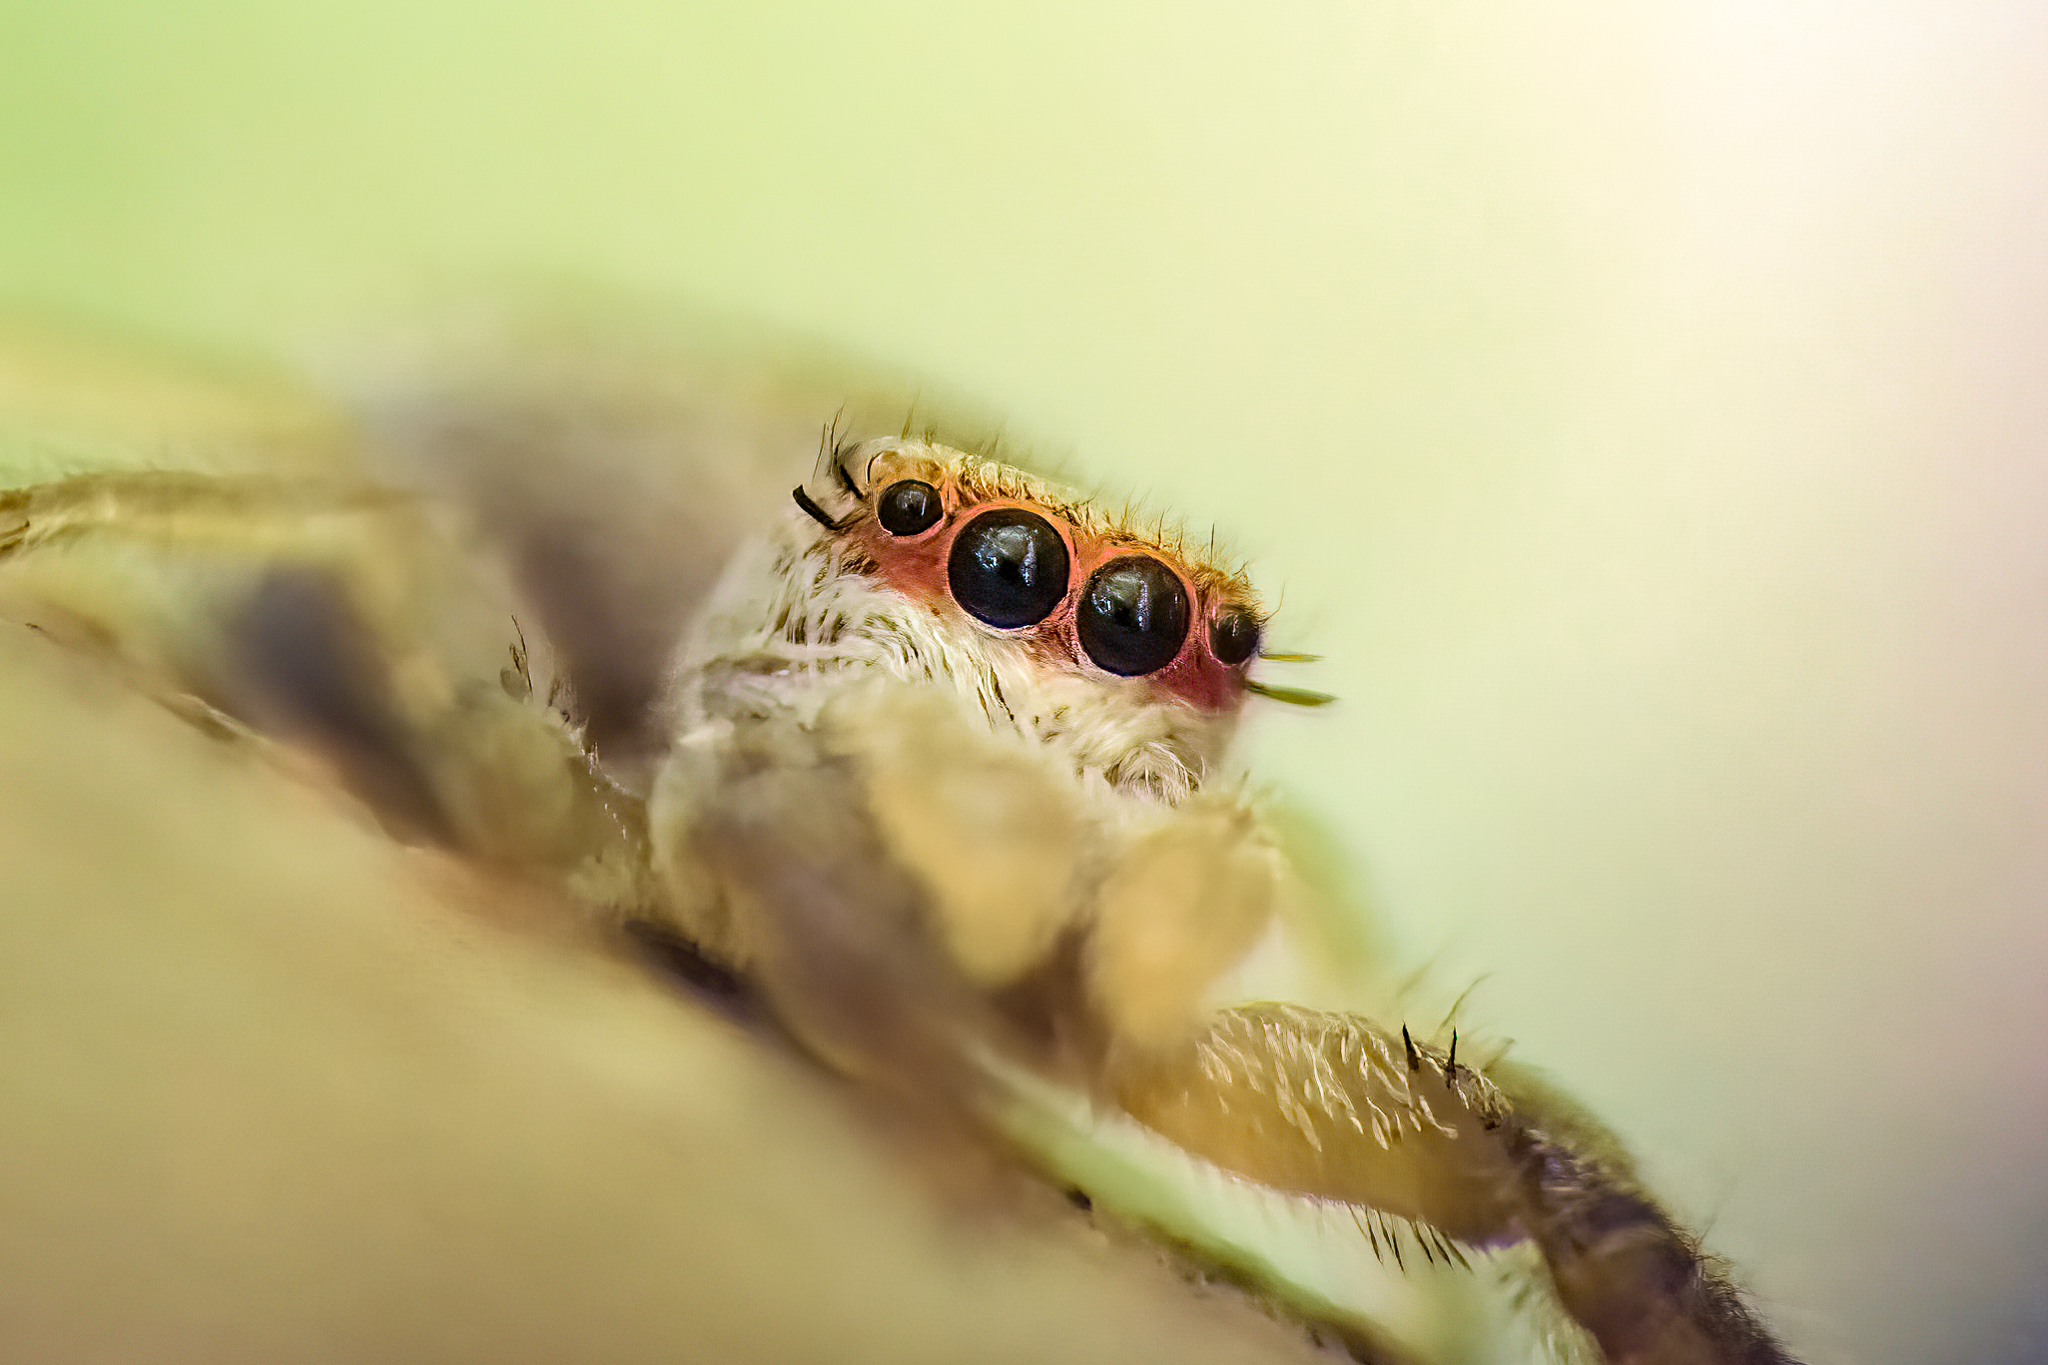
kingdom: Animalia
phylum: Arthropoda
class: Arachnida
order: Araneae
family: Salticidae
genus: Hentzia
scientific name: Hentzia mitrata
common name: White-jawed jumping spider
